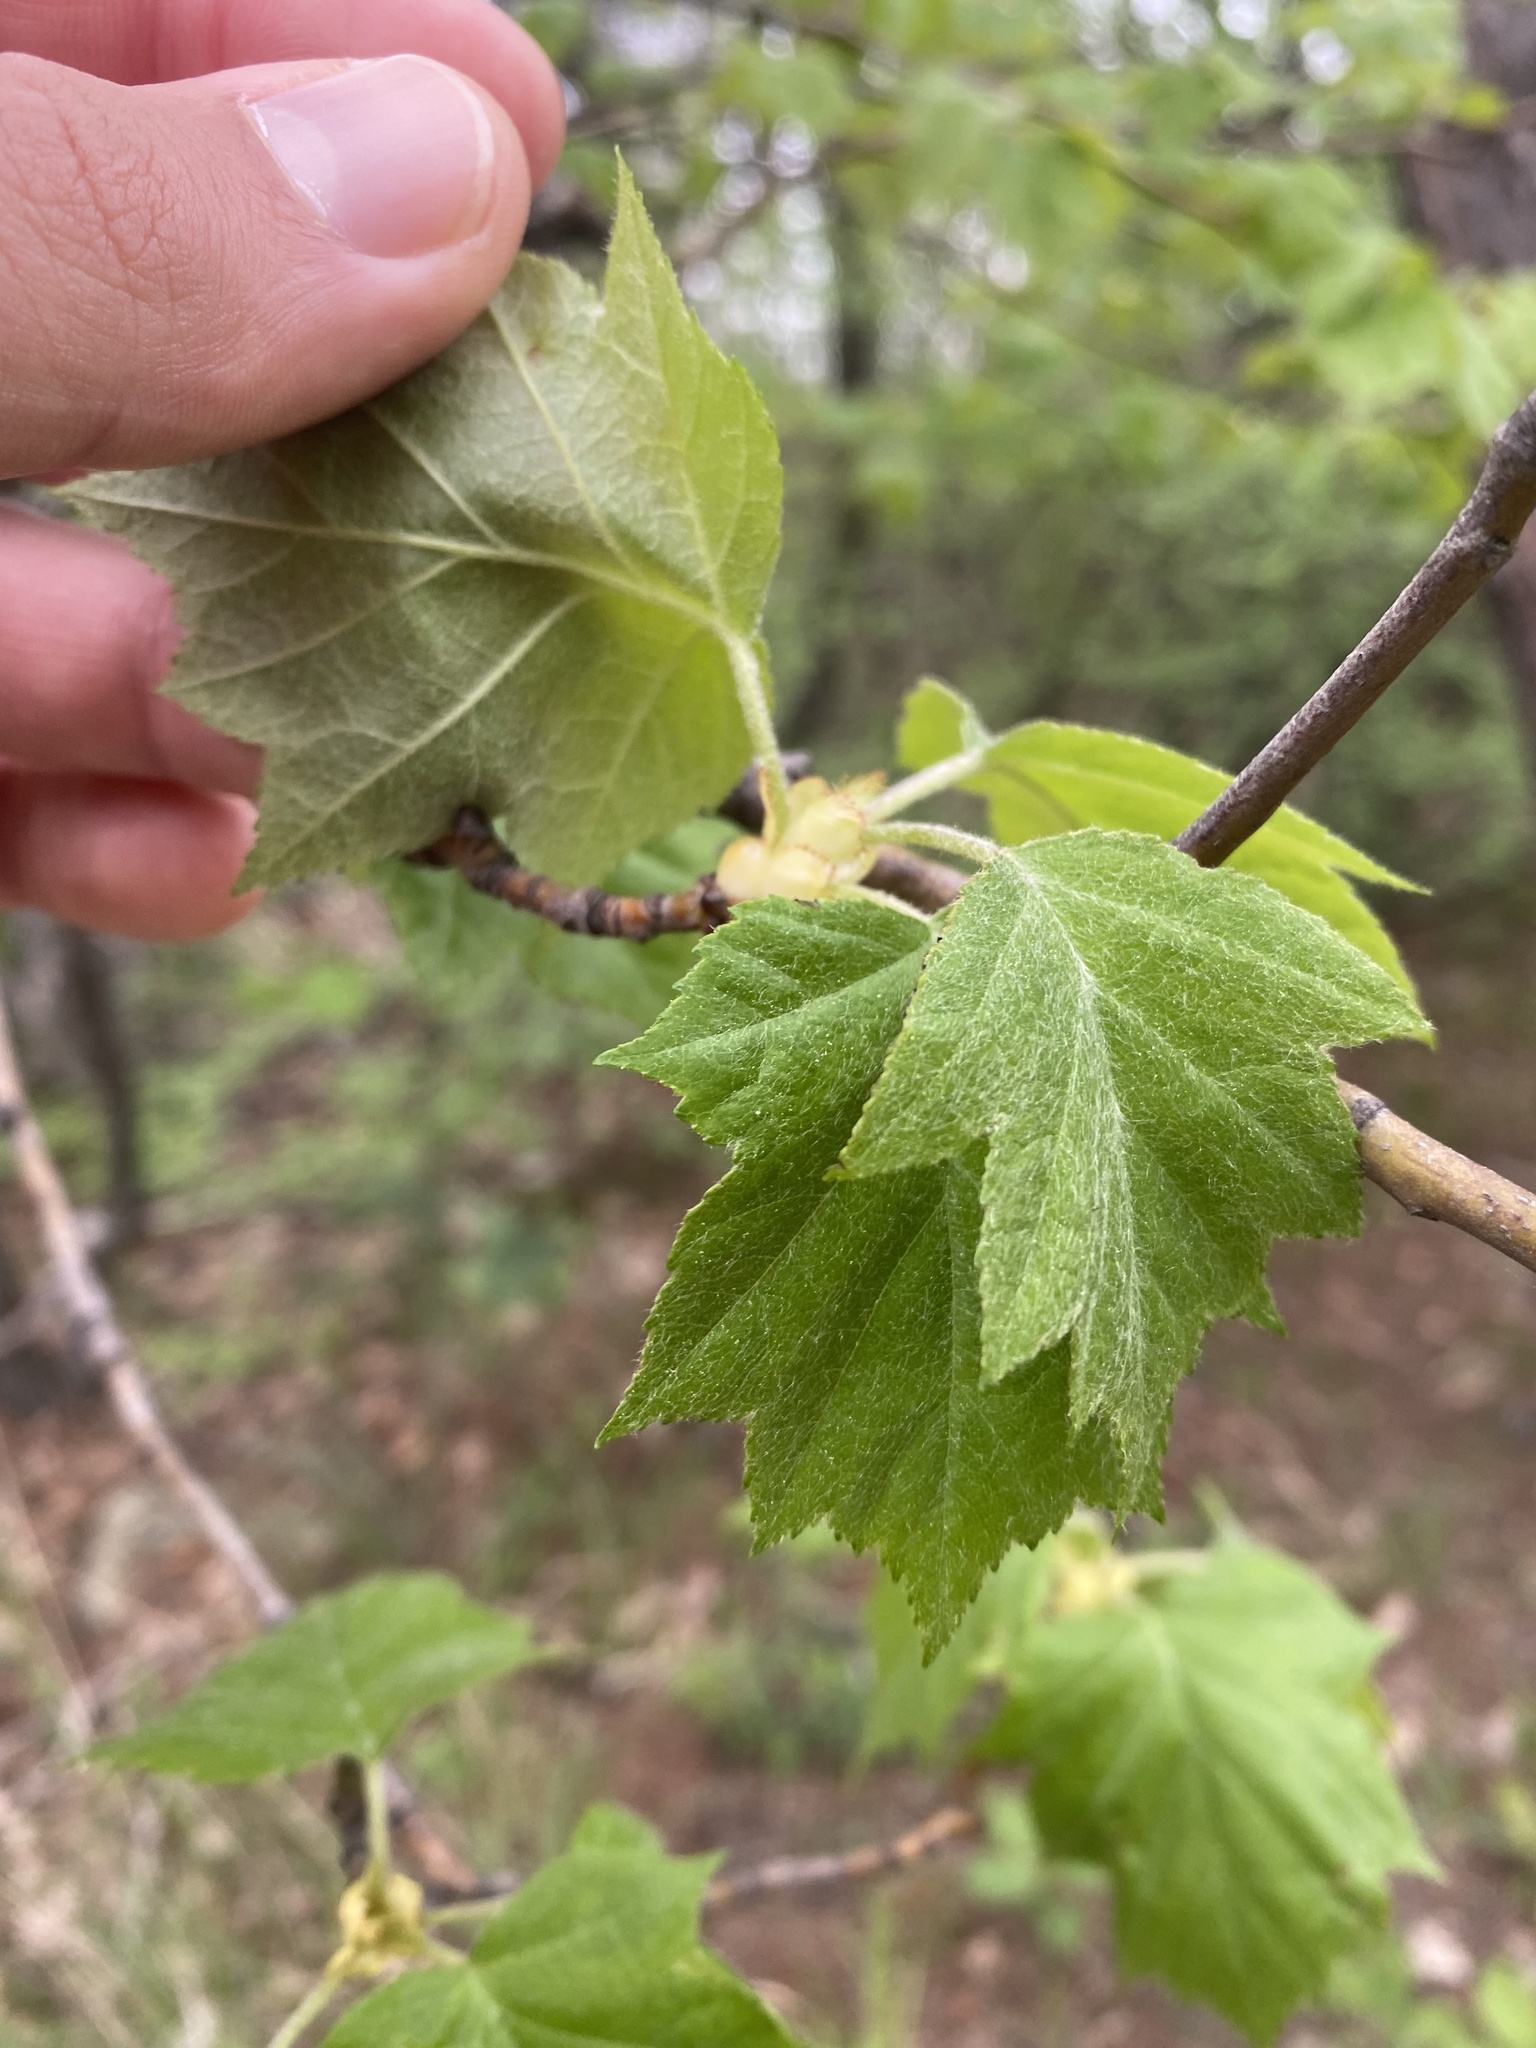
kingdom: Plantae
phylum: Tracheophyta
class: Magnoliopsida
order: Rosales
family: Rosaceae
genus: Torminalis
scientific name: Torminalis glaberrima
